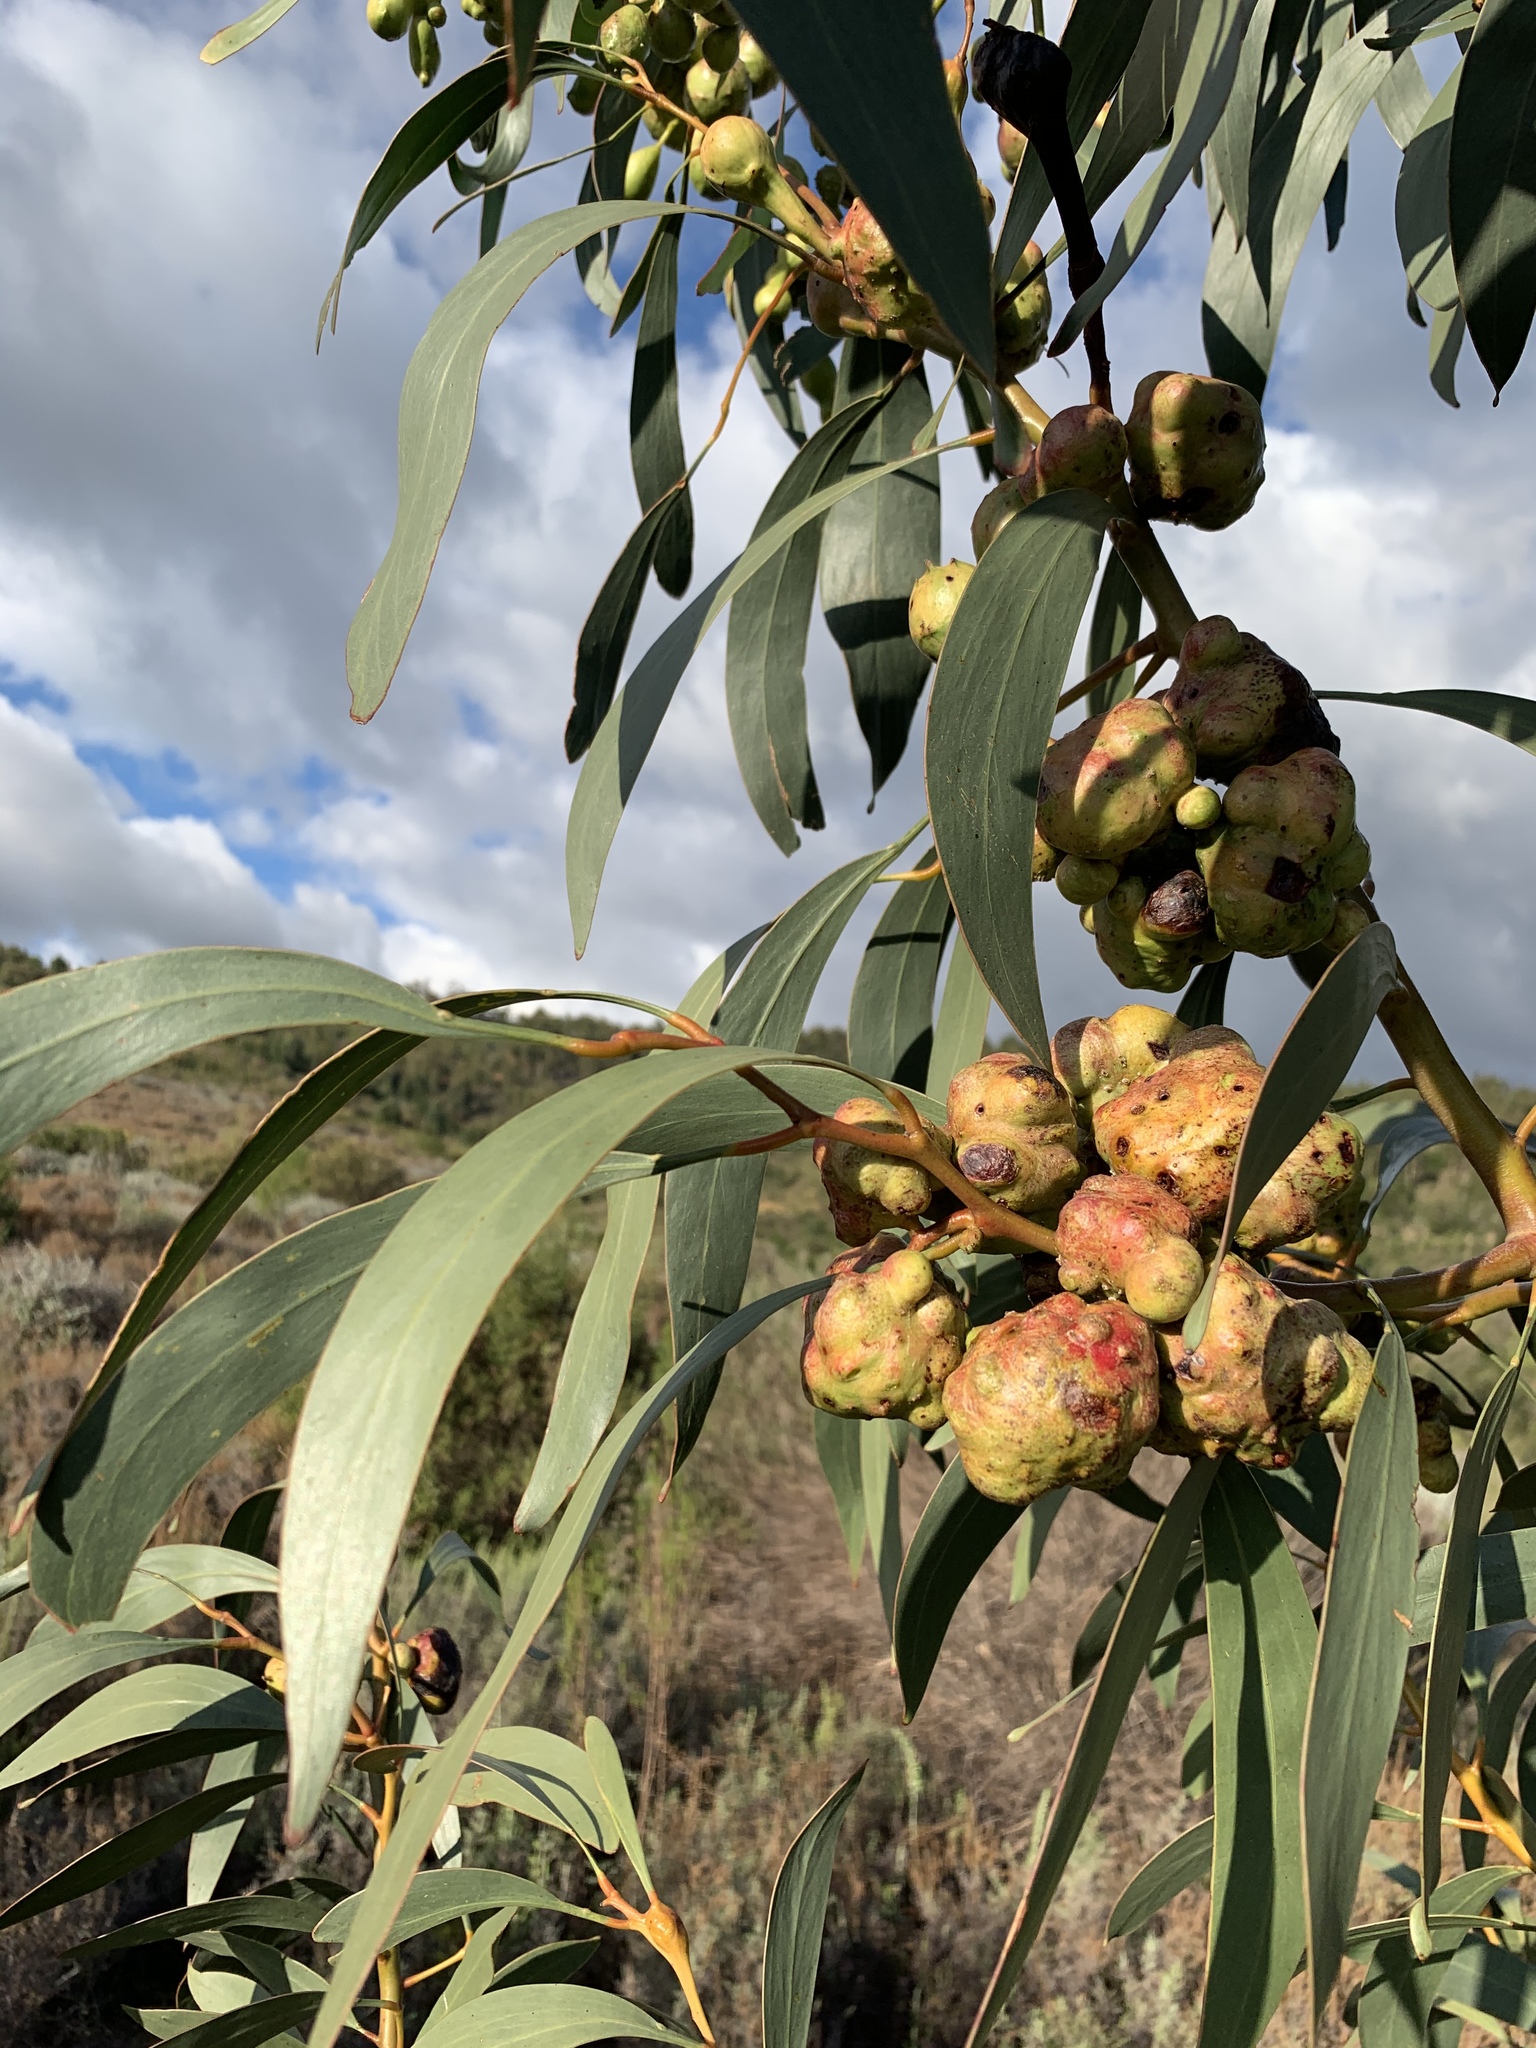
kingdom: Plantae
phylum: Tracheophyta
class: Magnoliopsida
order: Fabales
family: Fabaceae
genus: Acacia
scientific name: Acacia pycnantha
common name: Golden wattle
